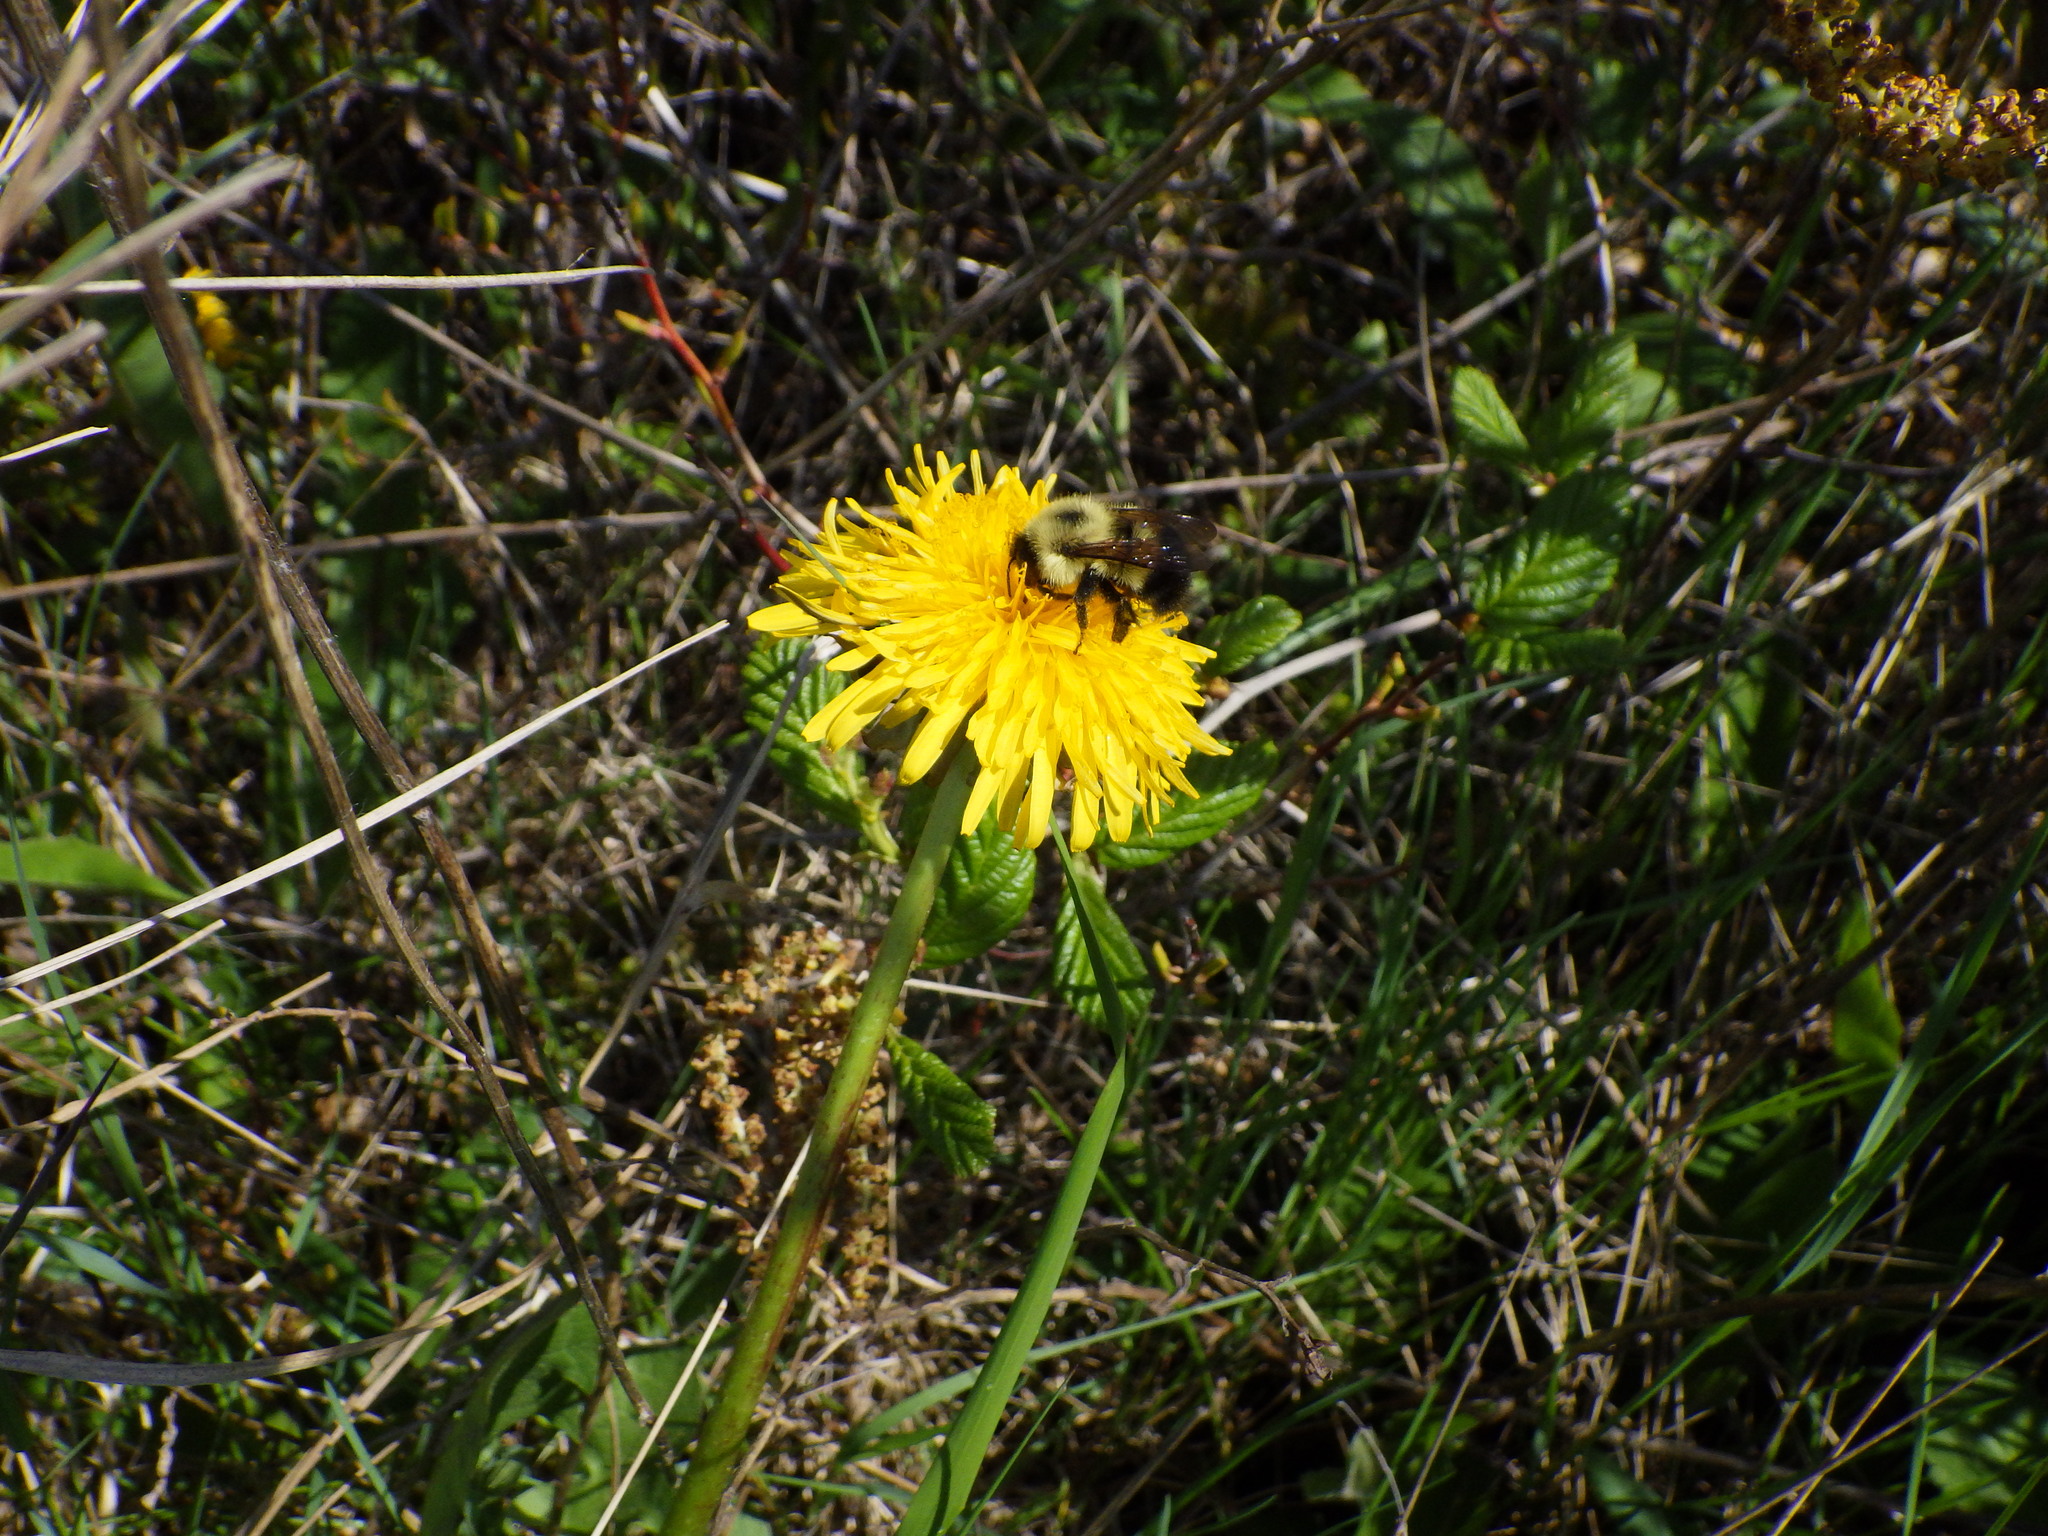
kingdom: Animalia
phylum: Arthropoda
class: Insecta
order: Hymenoptera
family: Apidae
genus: Pyrobombus
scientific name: Pyrobombus
